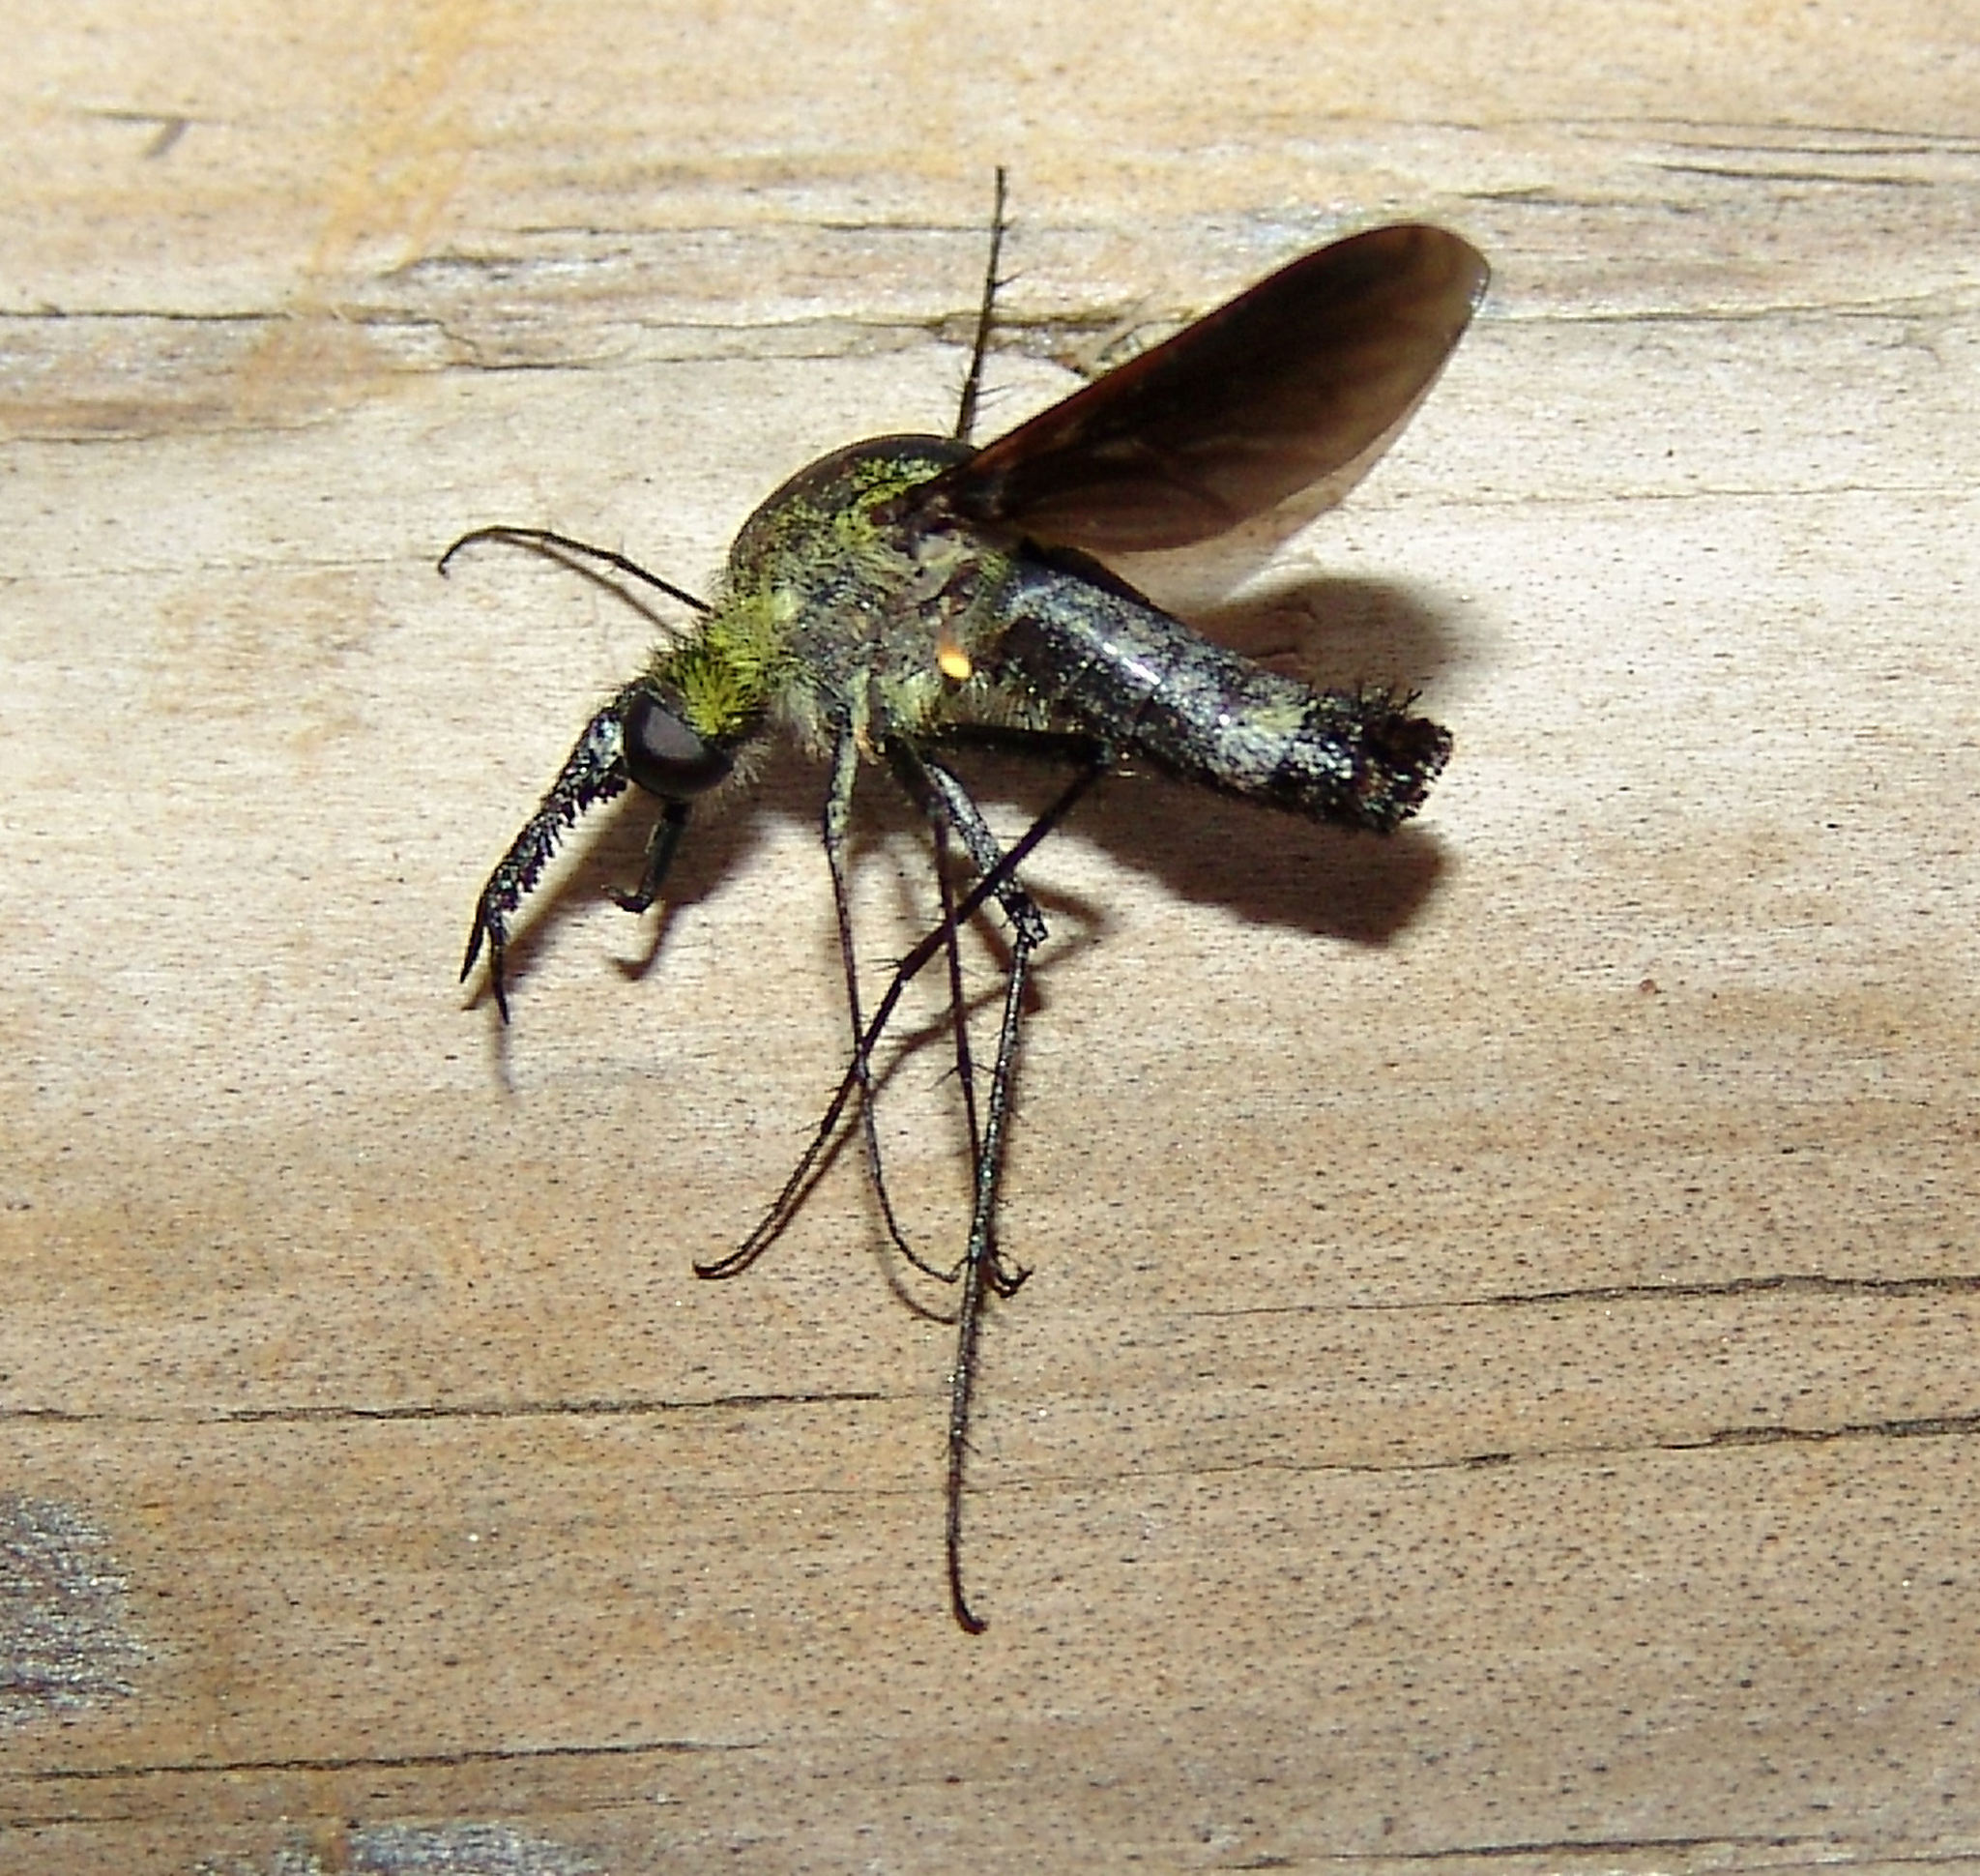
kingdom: Animalia
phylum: Arthropoda
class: Insecta
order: Diptera
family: Bombyliidae
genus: Lepidophora
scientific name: Lepidophora lutea
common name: Hunchback bee fly
